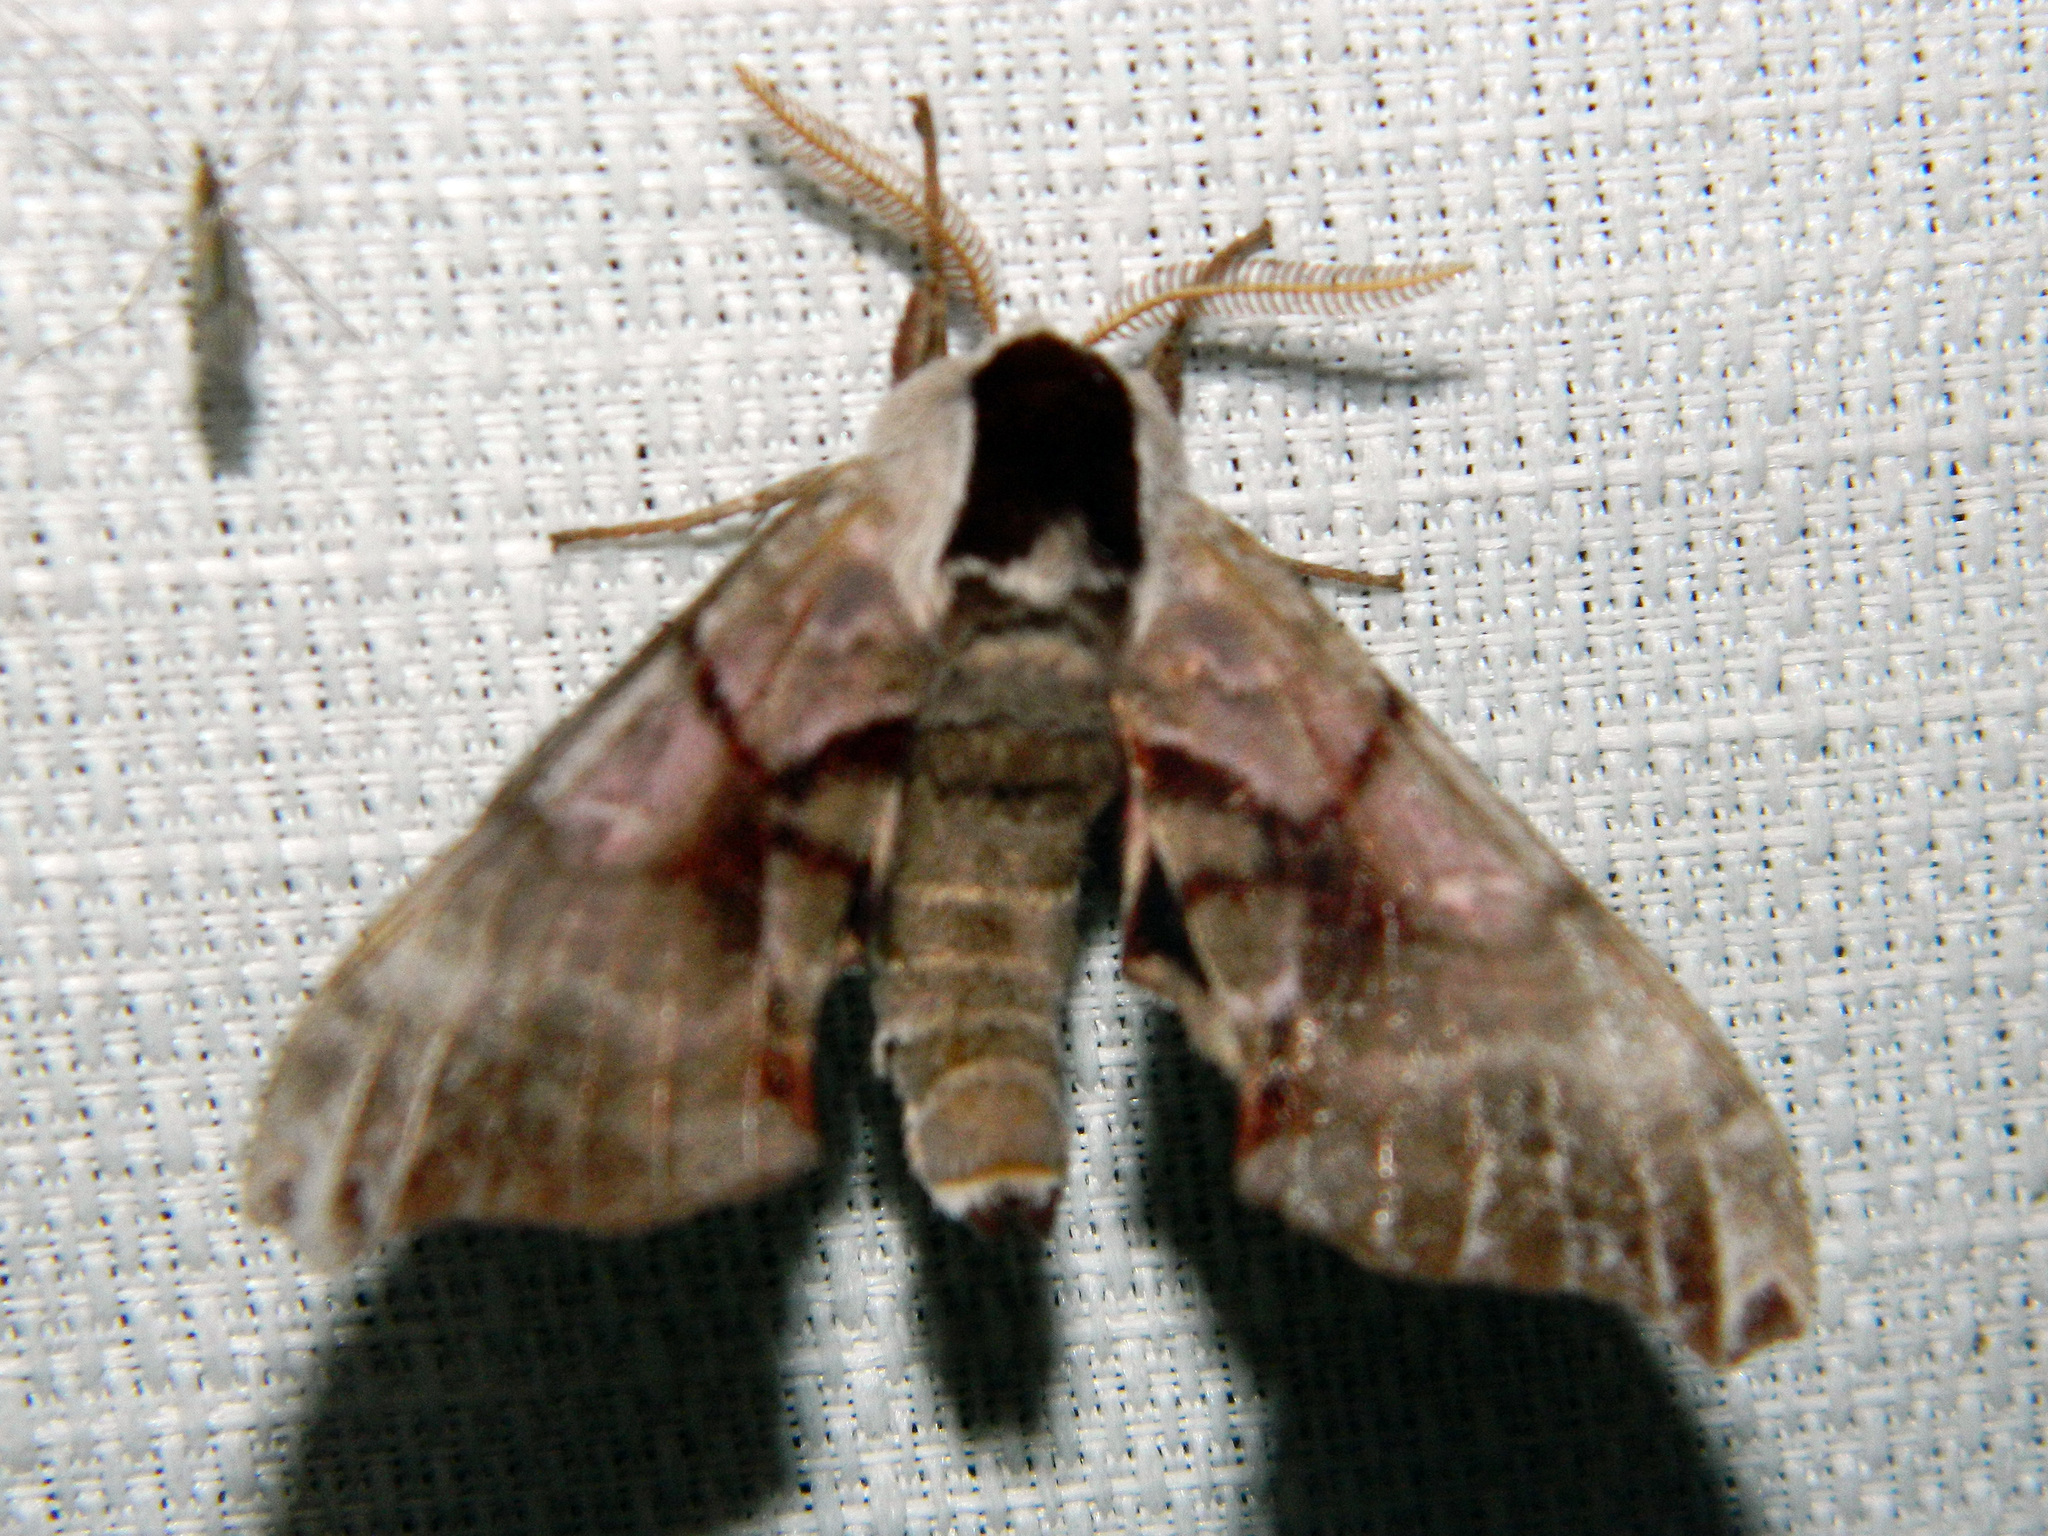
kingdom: Animalia
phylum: Arthropoda
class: Insecta
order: Lepidoptera
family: Sphingidae
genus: Smerinthus
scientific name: Smerinthus jamaicensis
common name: Twin spotted sphinx
